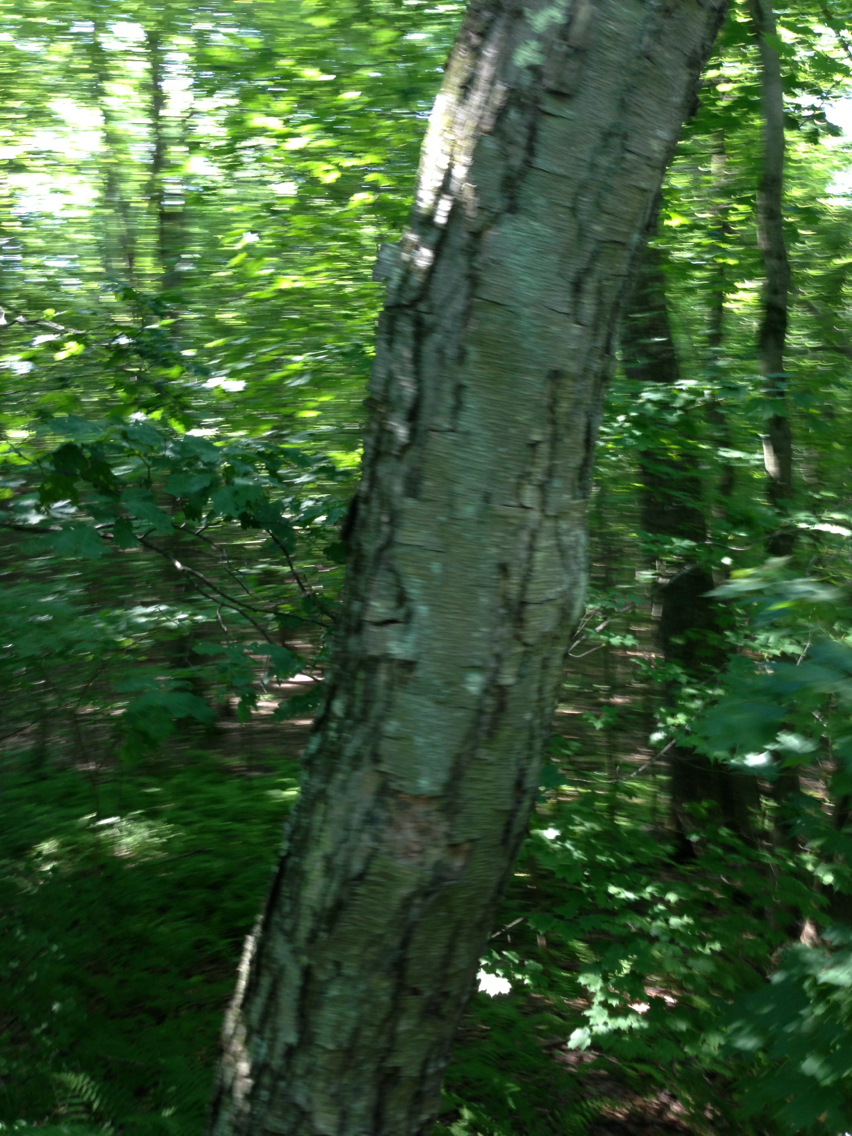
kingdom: Plantae
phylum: Tracheophyta
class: Magnoliopsida
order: Fagales
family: Betulaceae
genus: Betula
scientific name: Betula lenta
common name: Black birch
